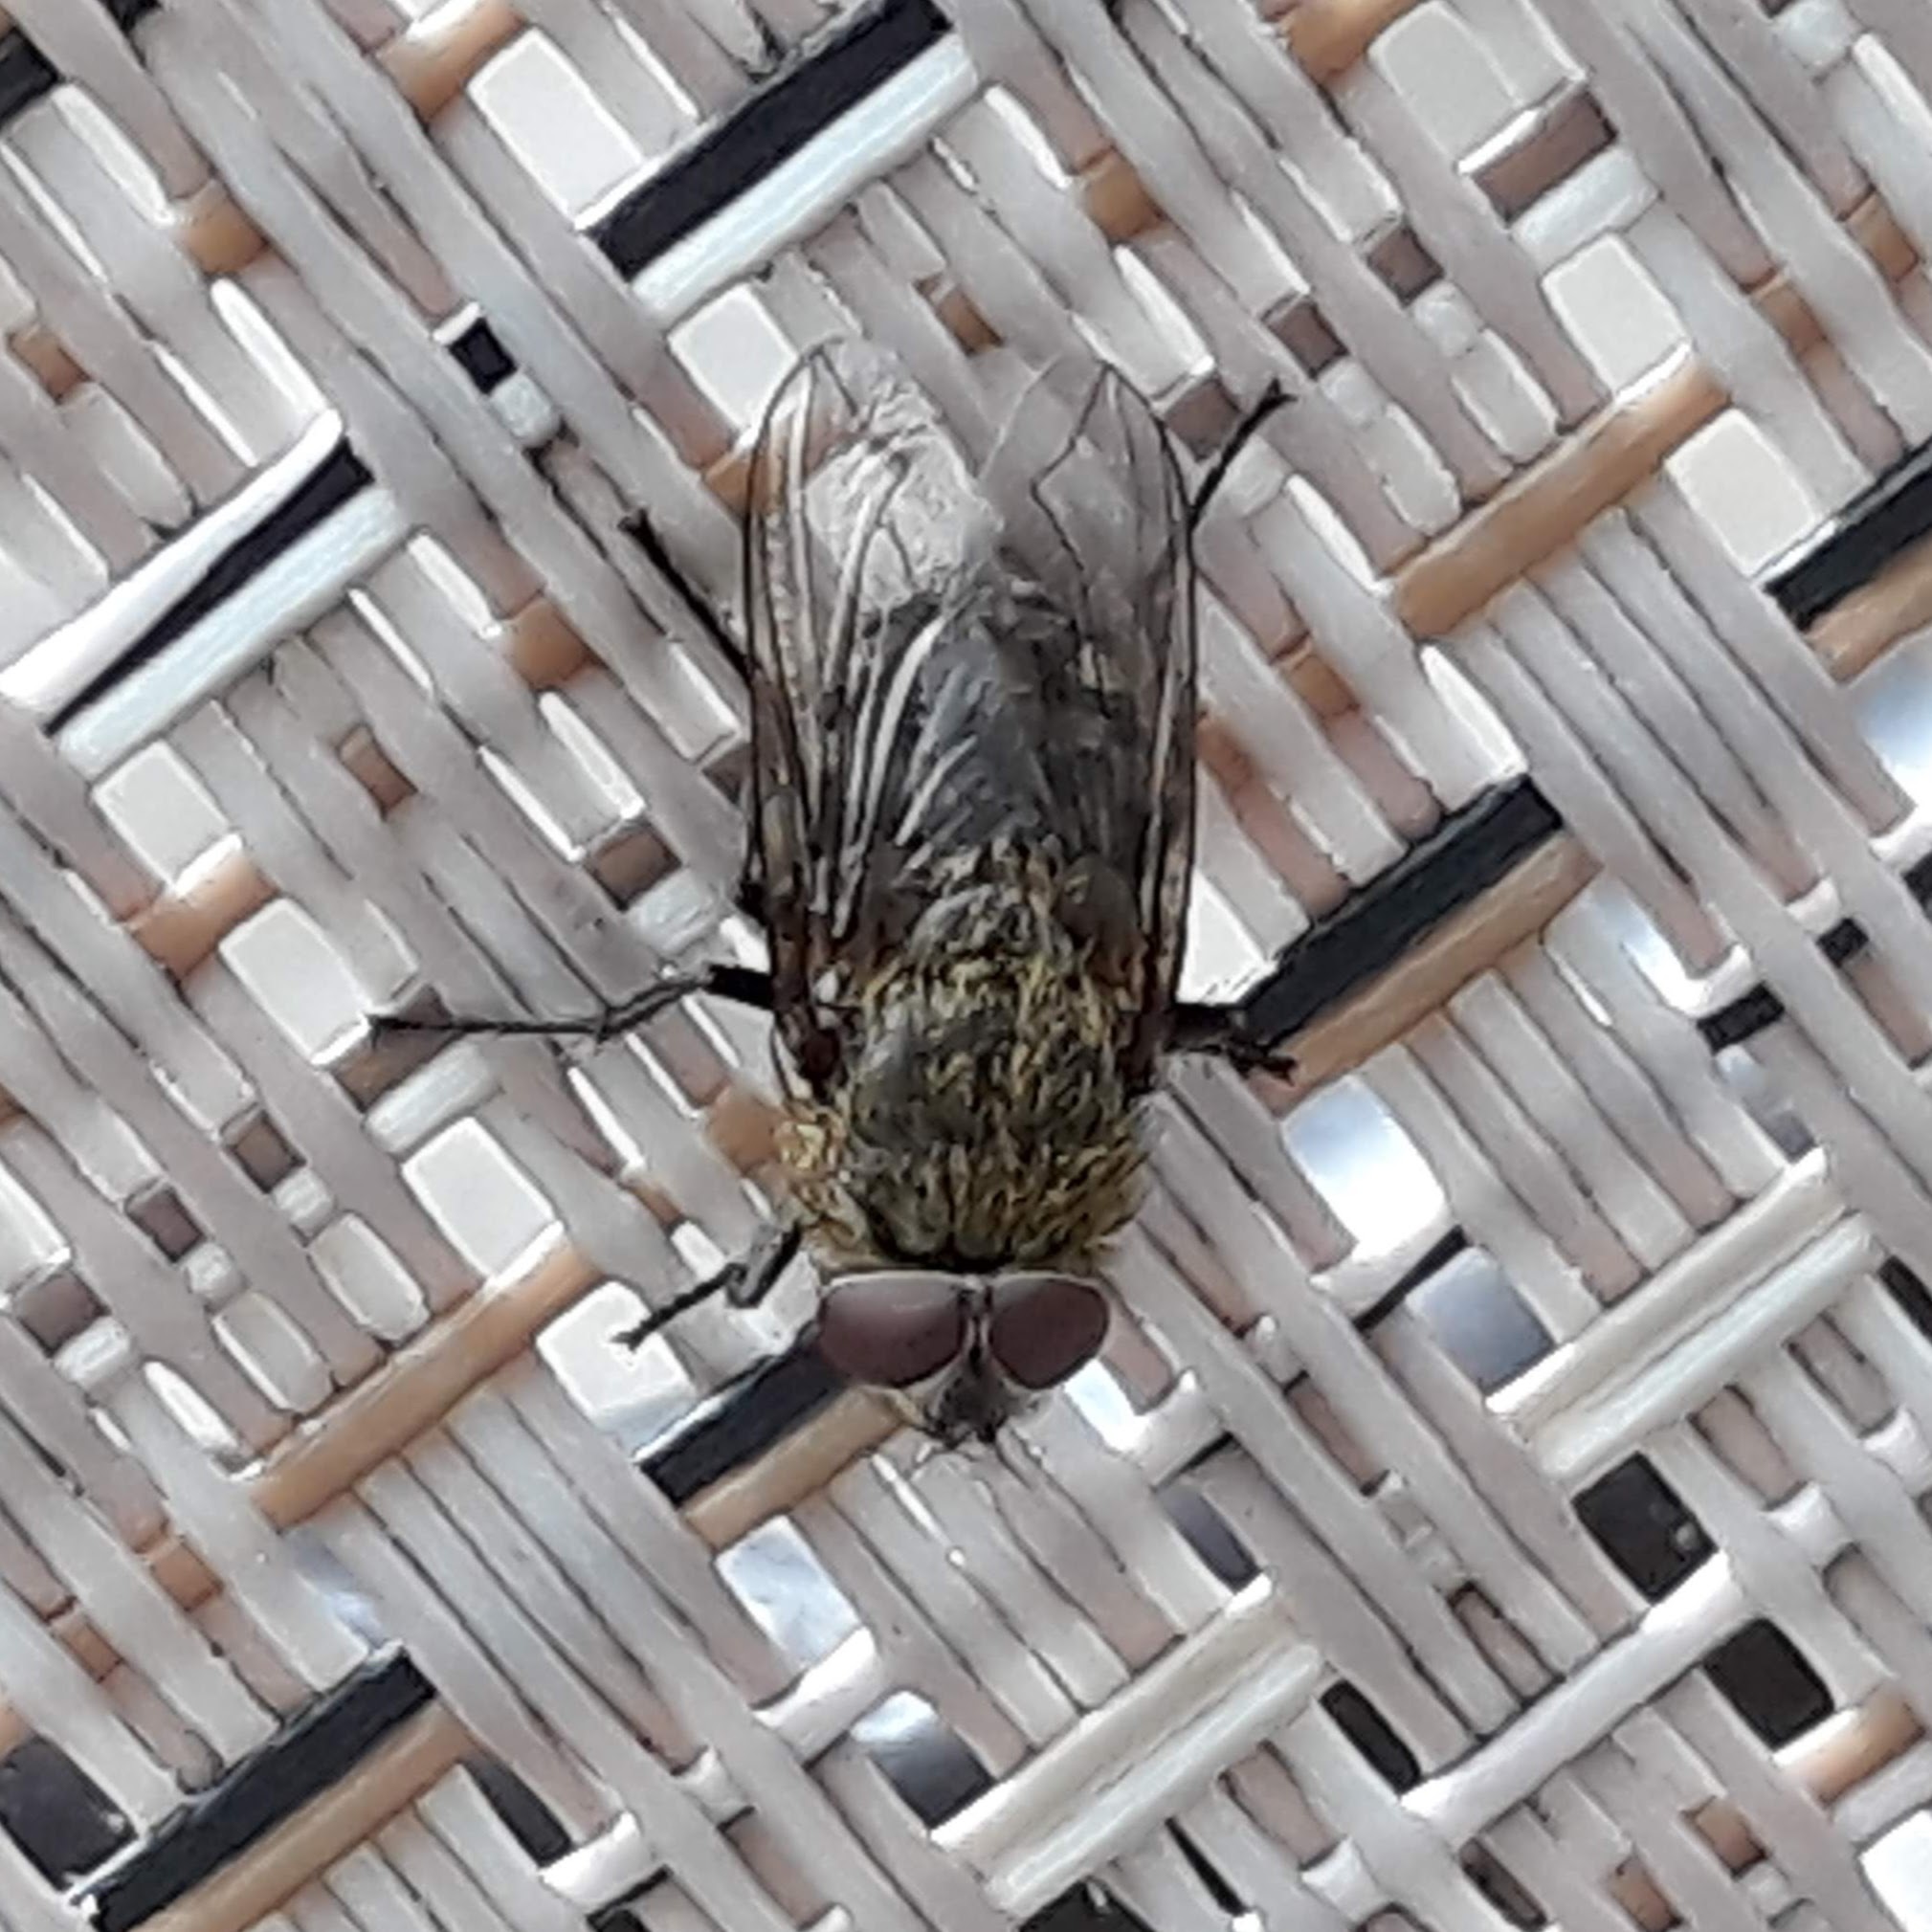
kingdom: Animalia
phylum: Arthropoda
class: Insecta
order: Diptera
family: Polleniidae
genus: Pollenia
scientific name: Pollenia
